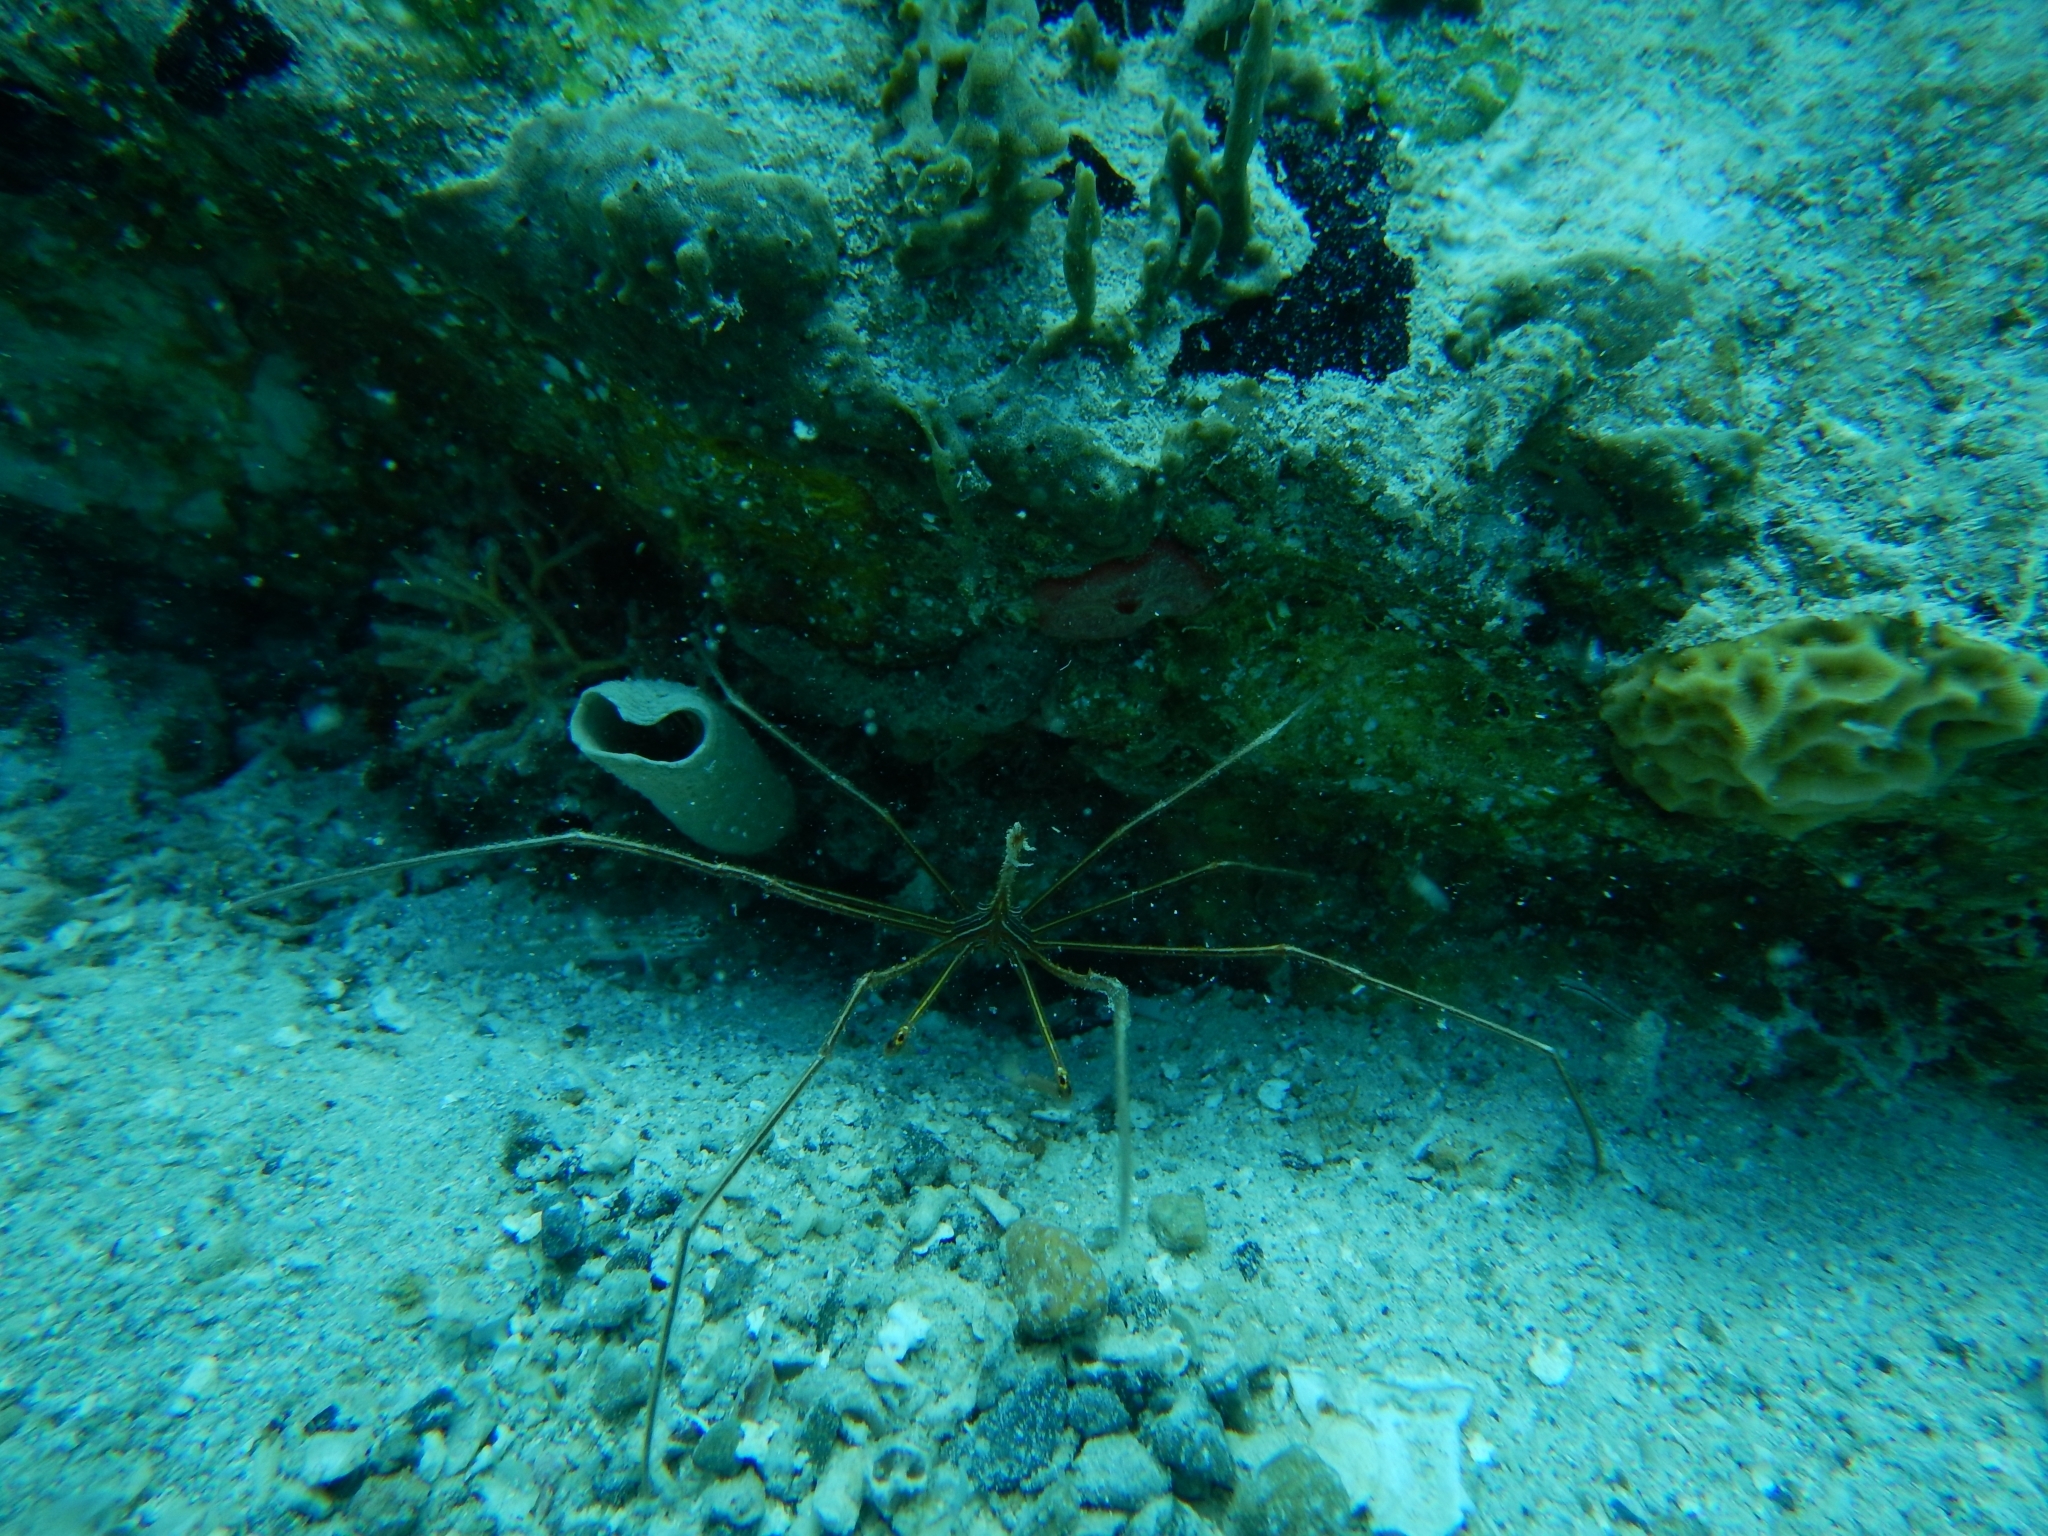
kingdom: Animalia
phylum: Arthropoda
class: Malacostraca
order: Decapoda
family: Inachoididae
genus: Stenorhynchus
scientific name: Stenorhynchus seticornis
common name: Arrow crab
